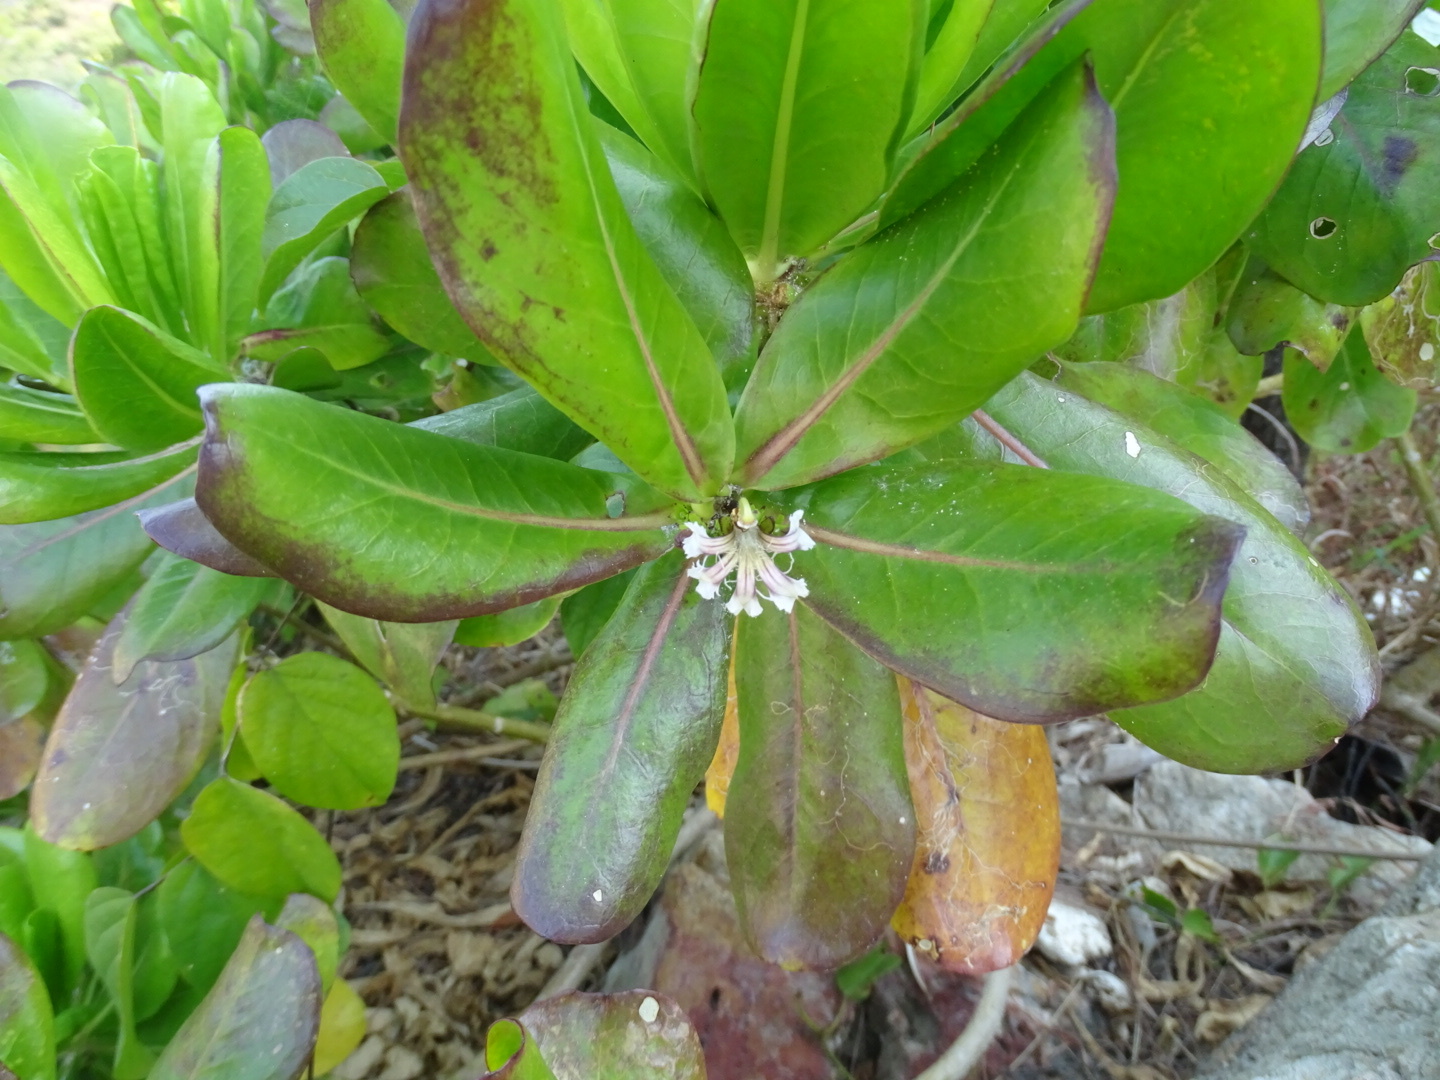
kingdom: Plantae
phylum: Tracheophyta
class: Magnoliopsida
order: Asterales
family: Goodeniaceae
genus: Scaevola
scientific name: Scaevola taccada
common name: Sea lettucetree
